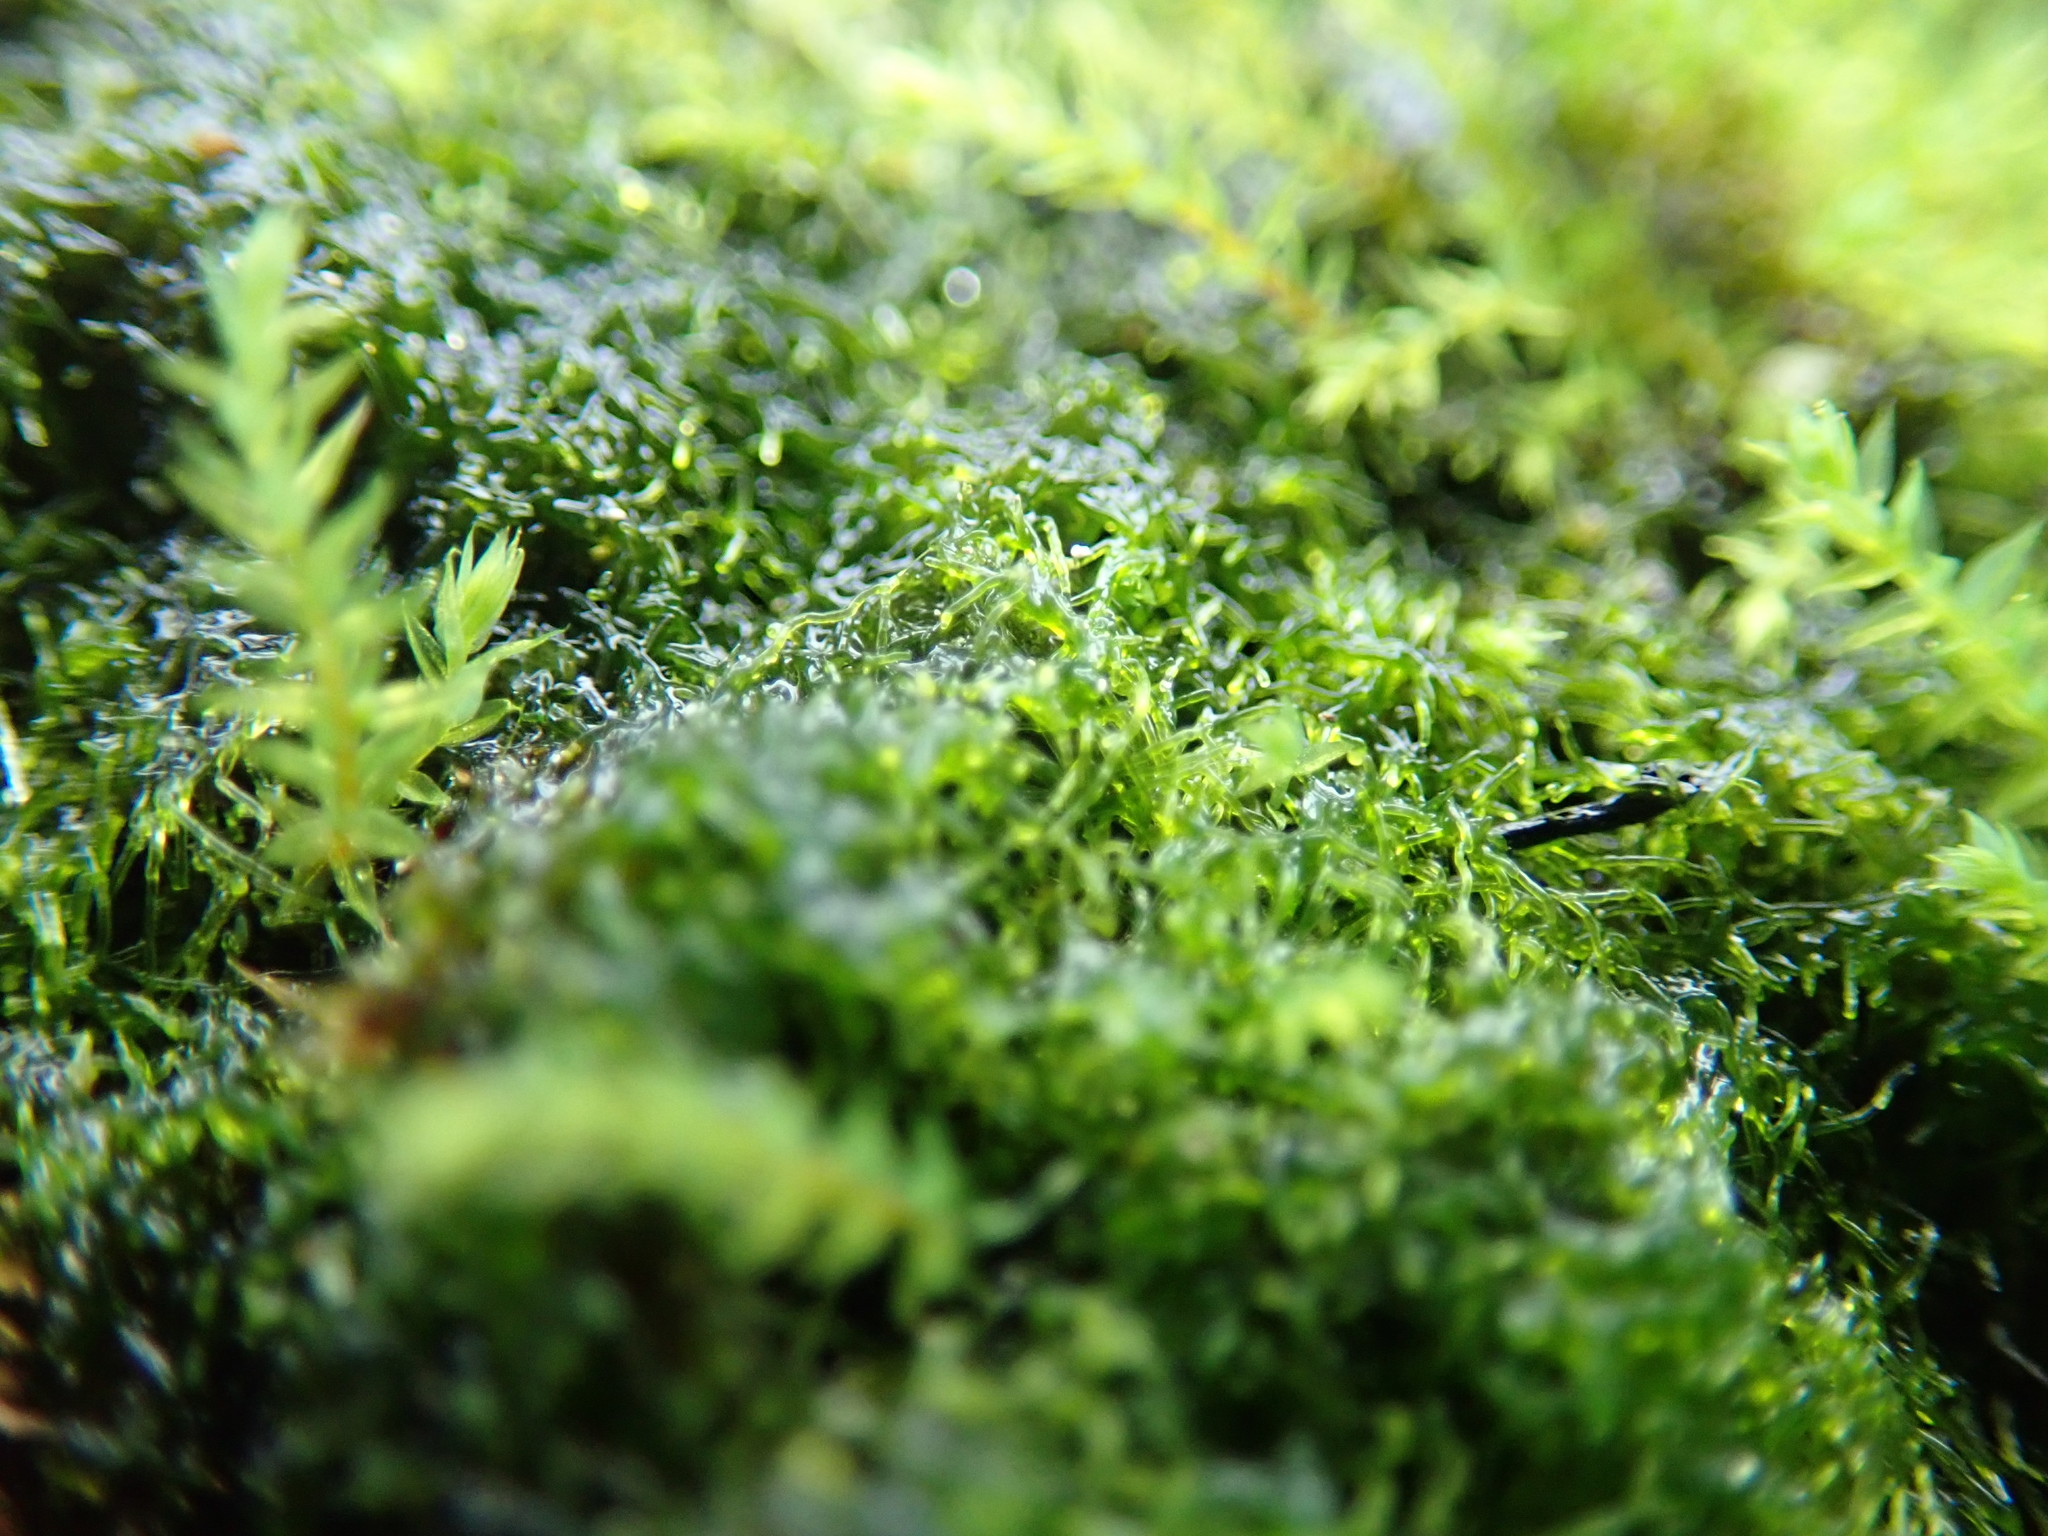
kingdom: Chromista
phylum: Ochrophyta
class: Xanthophyceae
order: Vaucheriales
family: Vaucheriaceae
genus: Vaucheria
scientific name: Vaucheria
